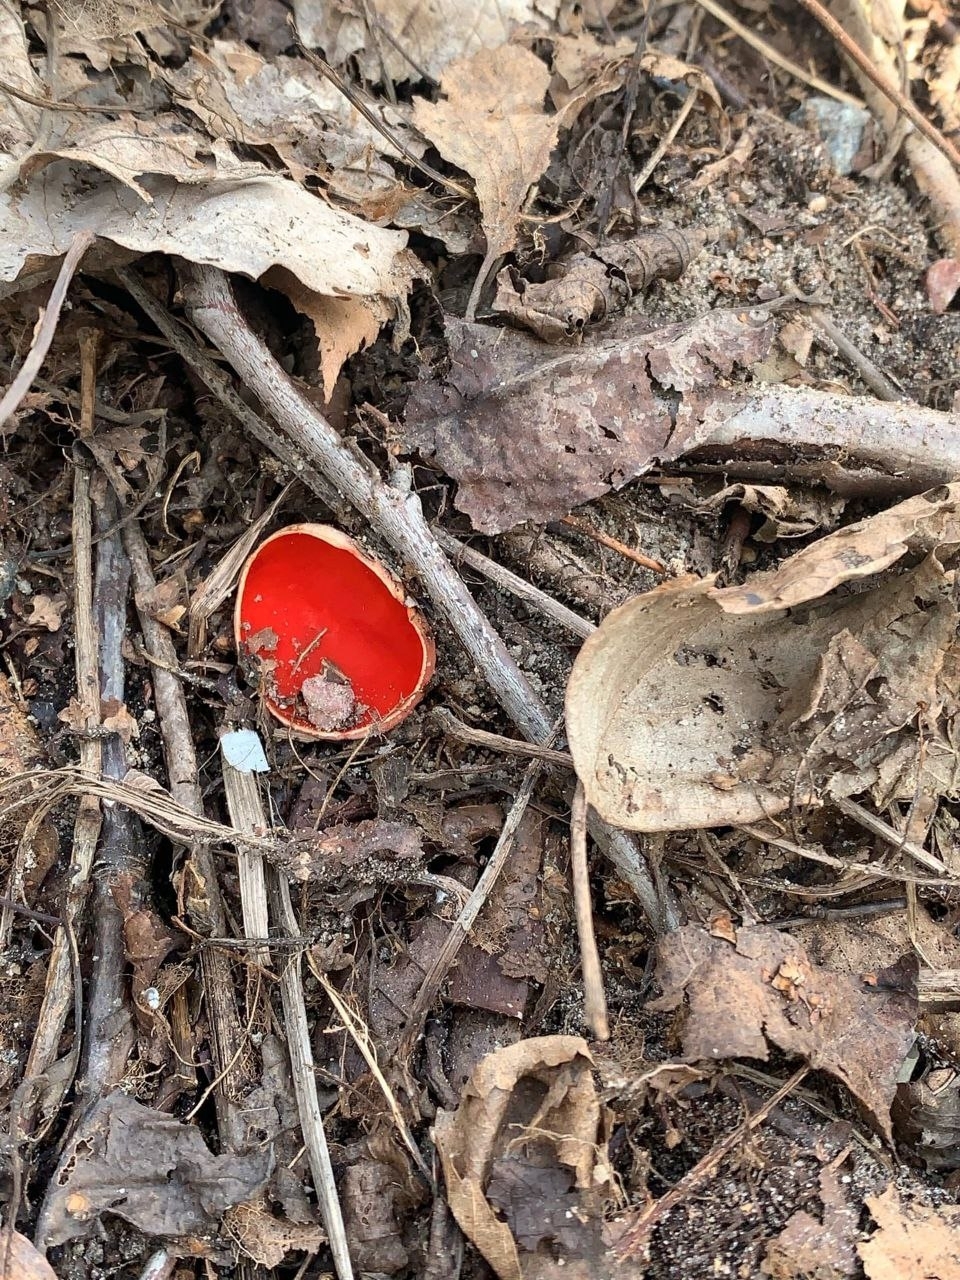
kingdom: Fungi
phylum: Ascomycota
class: Pezizomycetes
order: Pezizales
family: Sarcoscyphaceae
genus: Sarcoscypha
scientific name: Sarcoscypha austriaca
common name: Scarlet elfcup
